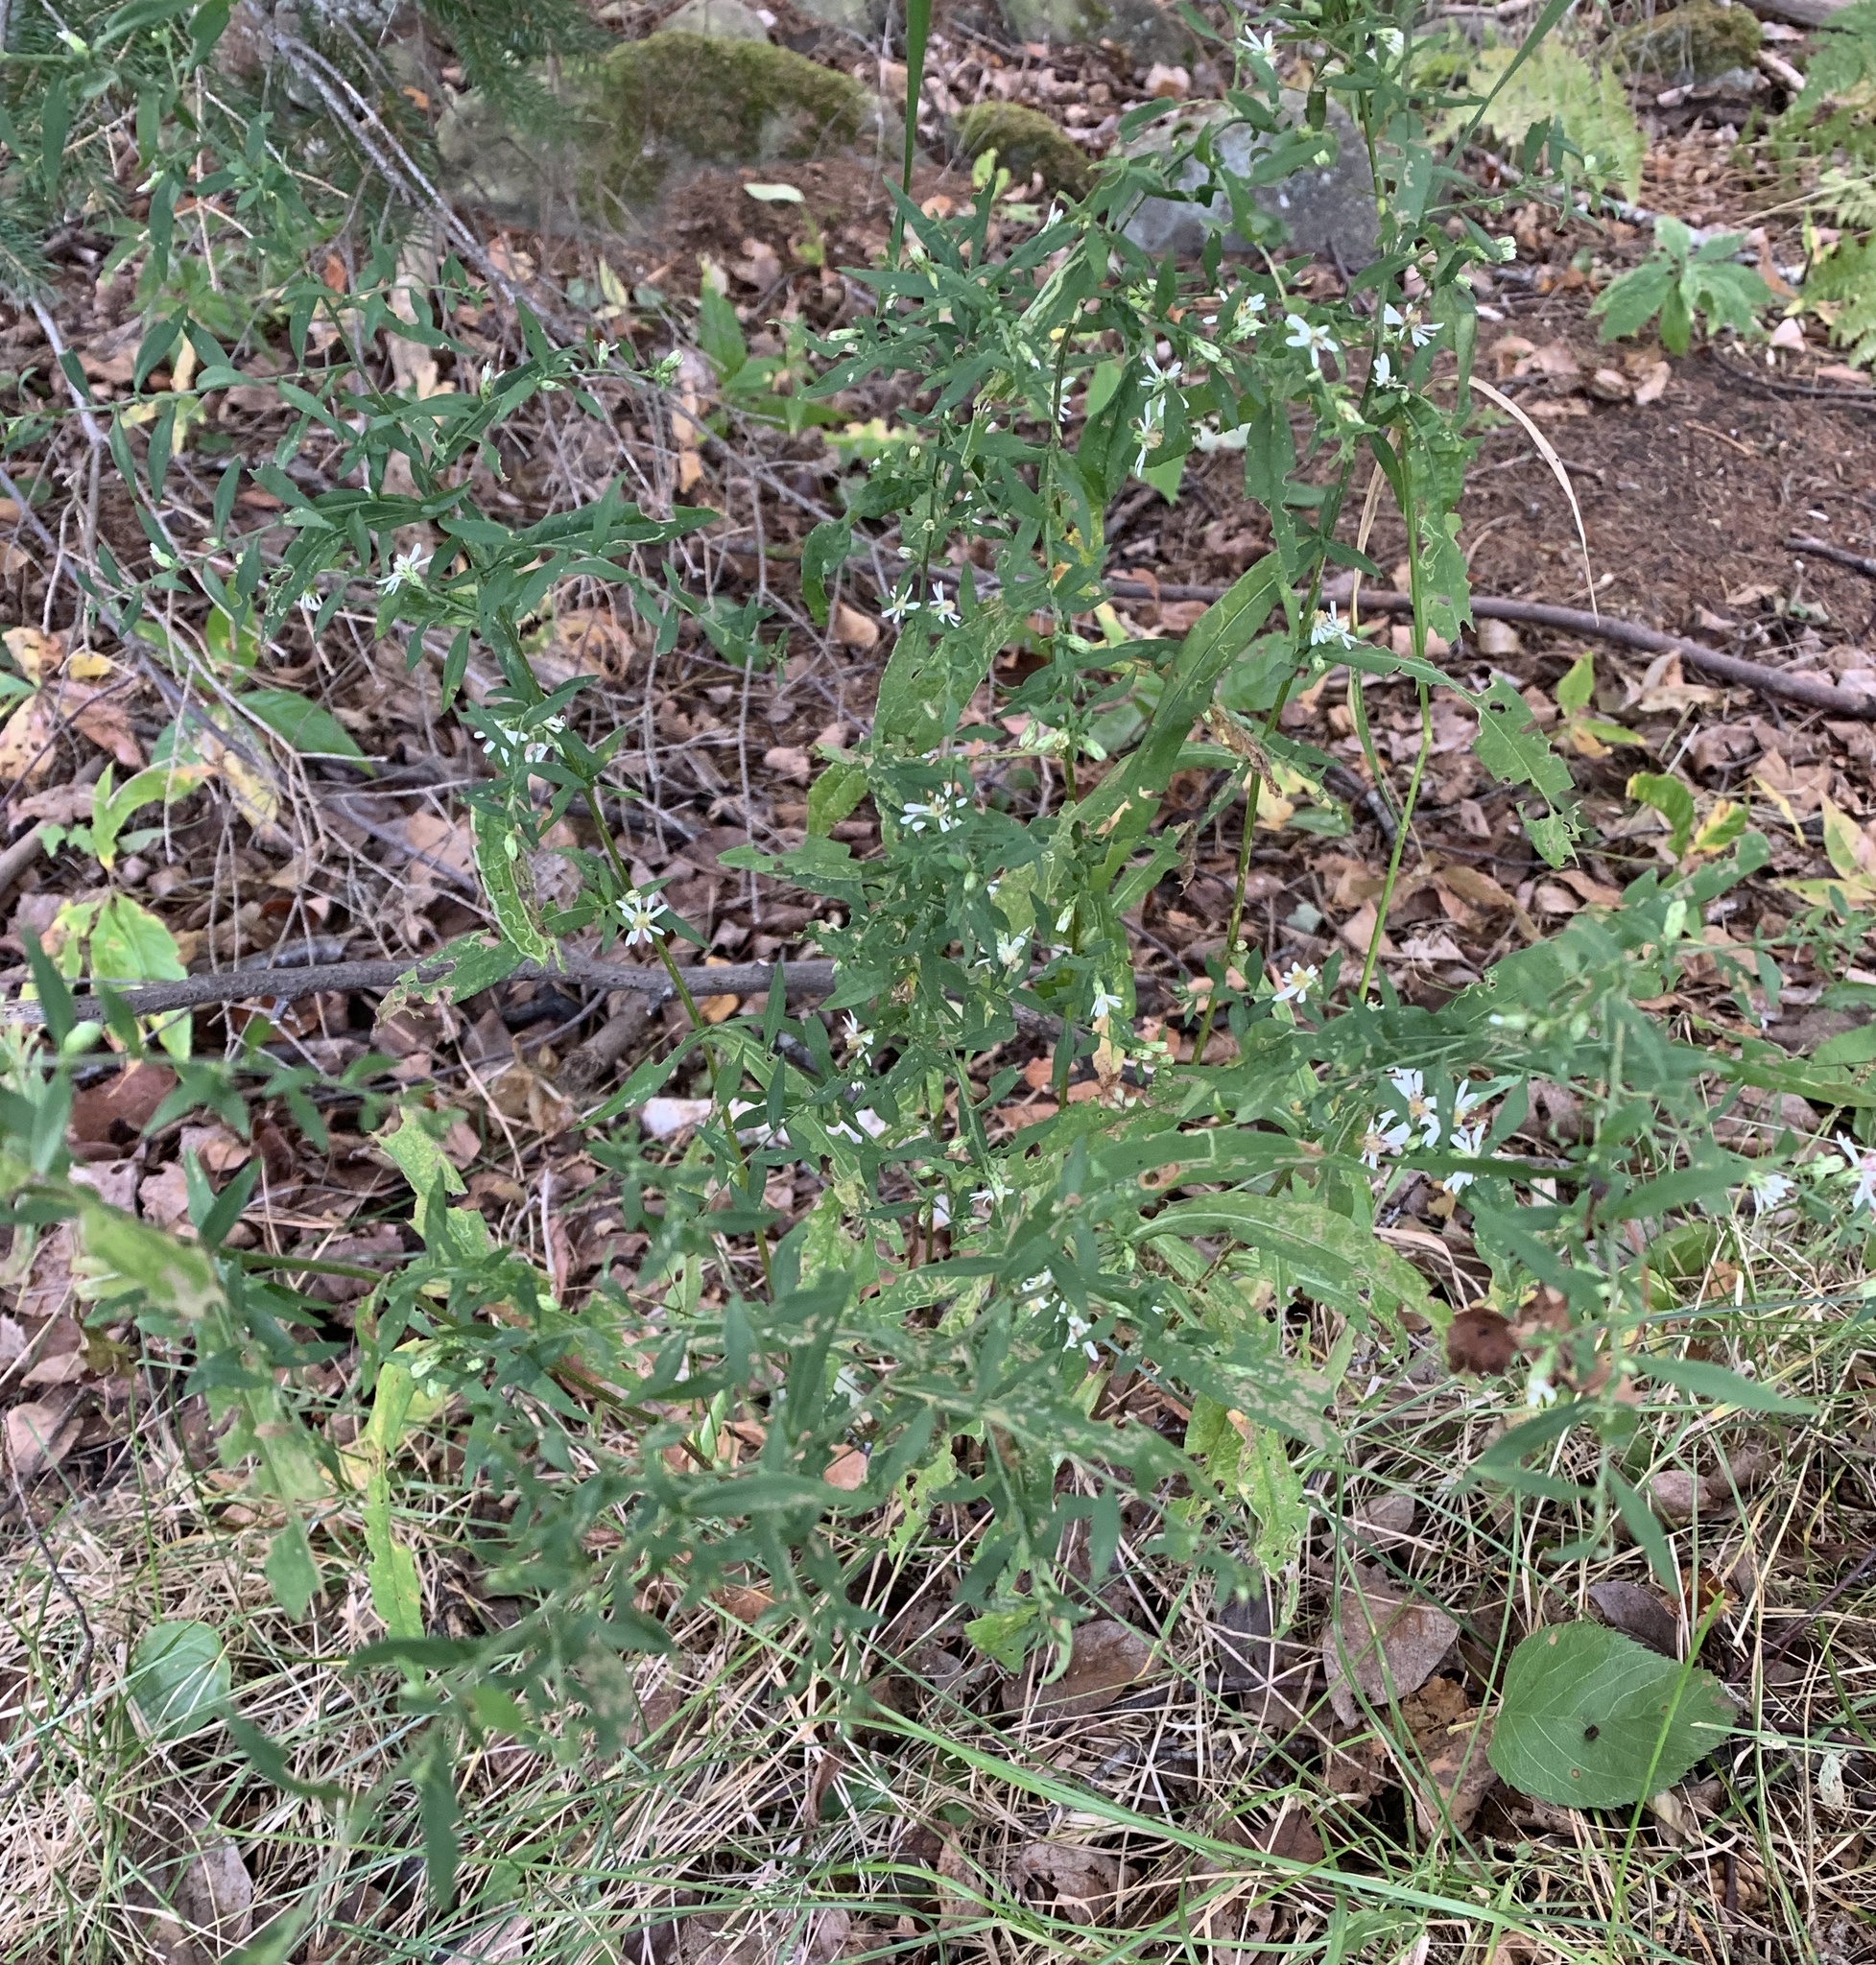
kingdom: Plantae
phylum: Tracheophyta
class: Magnoliopsida
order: Asterales
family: Asteraceae
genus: Symphyotrichum
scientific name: Symphyotrichum lateriflorum
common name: Calico aster
